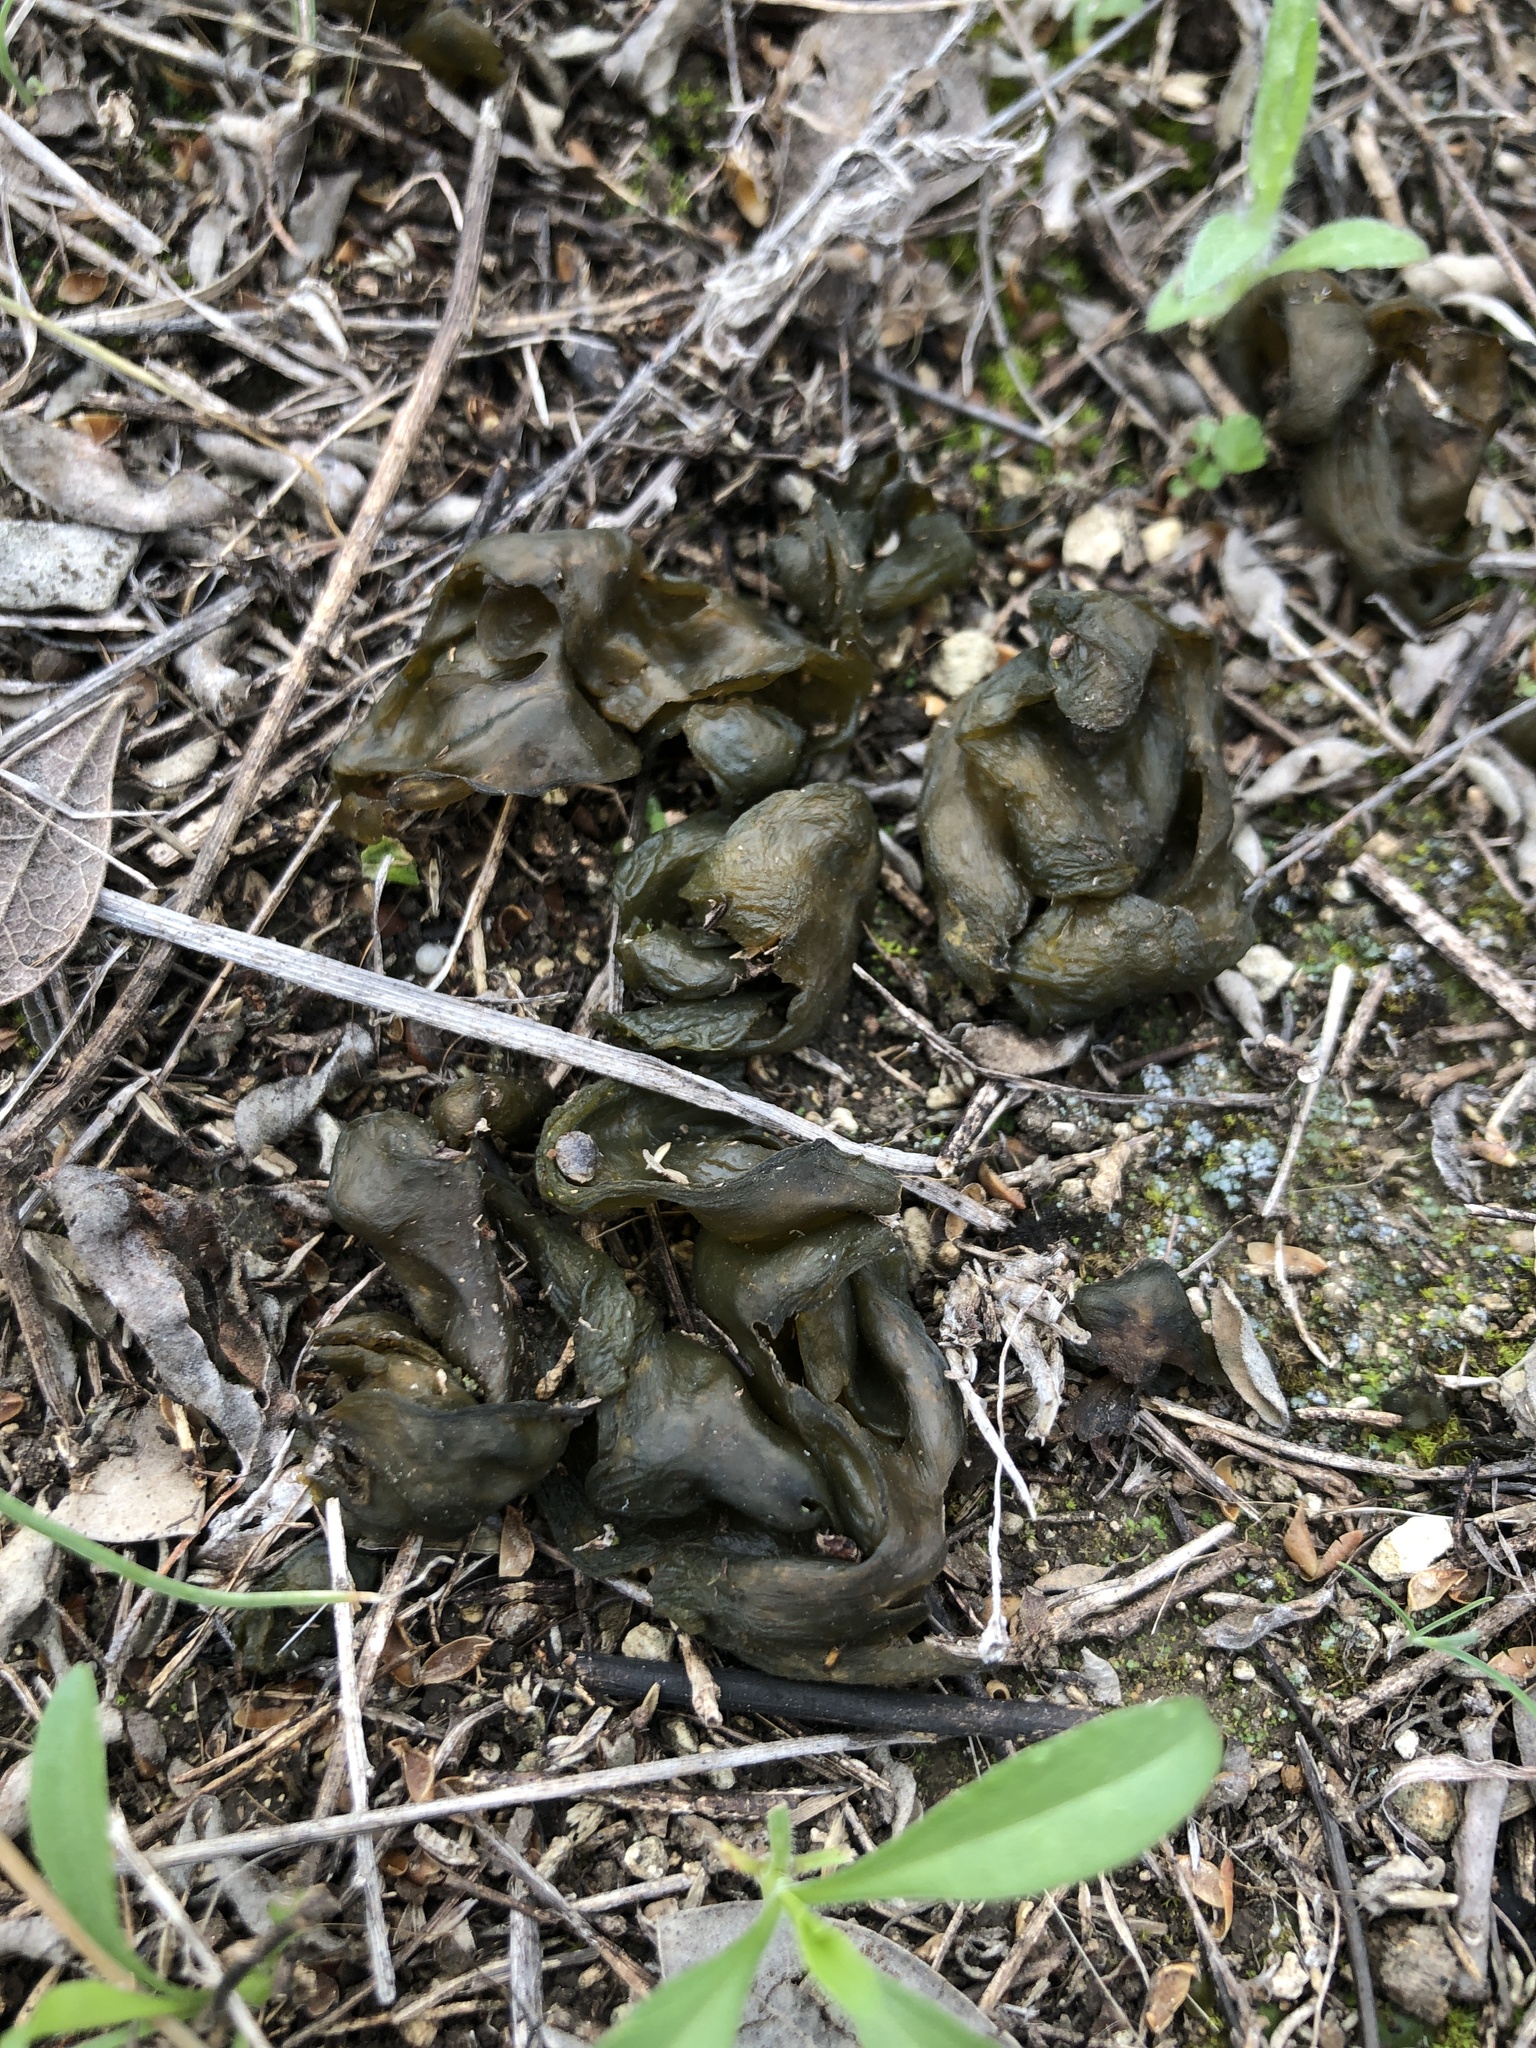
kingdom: Bacteria
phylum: Cyanobacteria
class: Cyanobacteriia
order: Cyanobacteriales
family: Nostocaceae
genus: Nostoc
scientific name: Nostoc commune
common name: Star jelly
